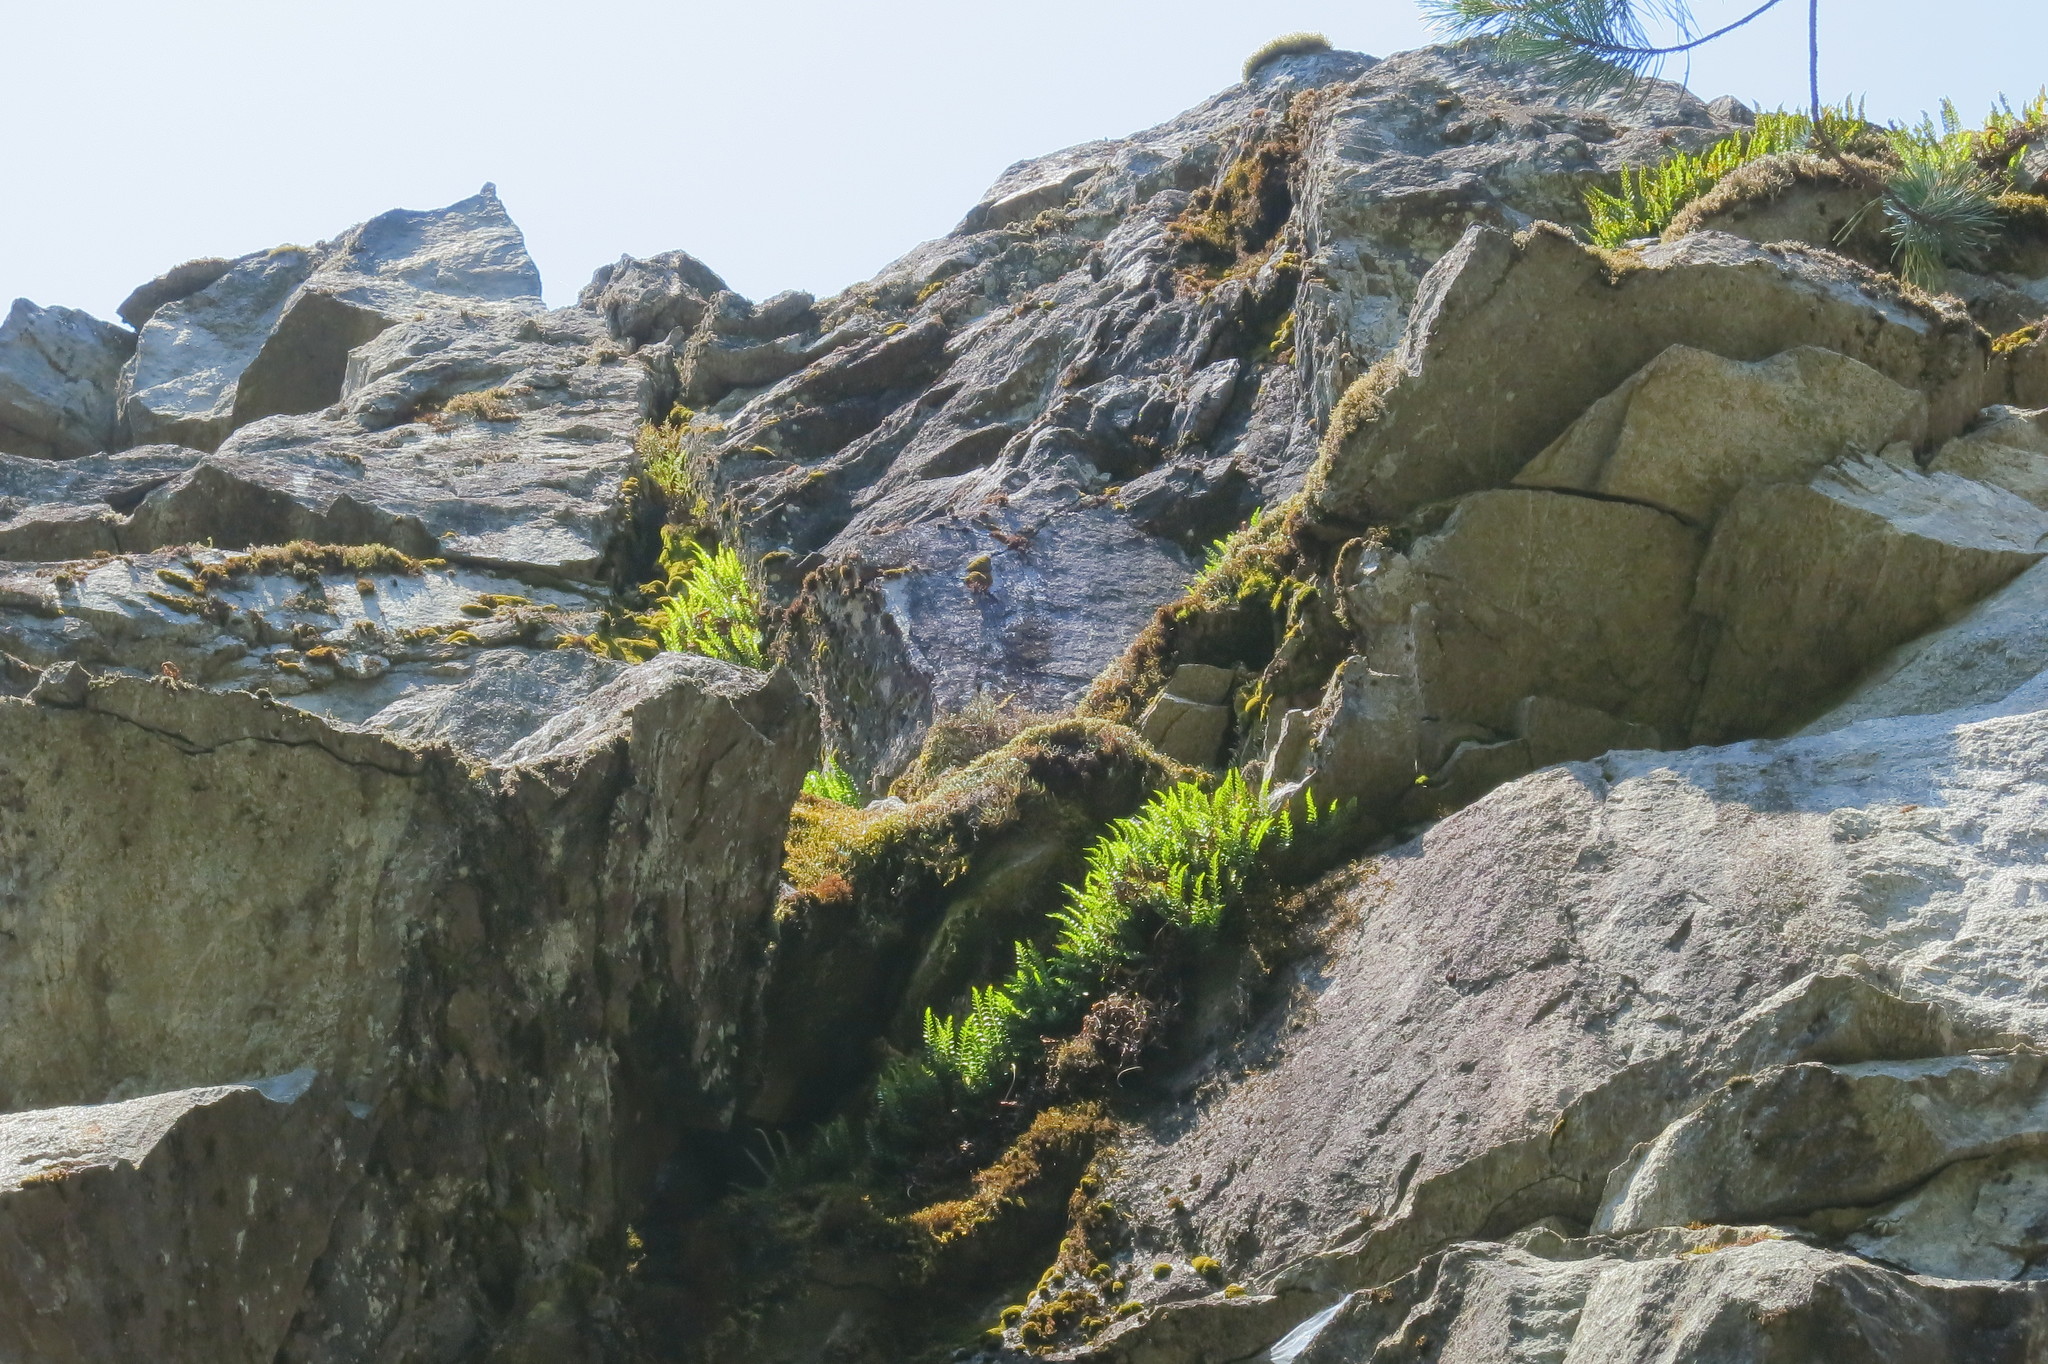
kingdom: Plantae
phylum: Tracheophyta
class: Polypodiopsida
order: Polypodiales
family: Polypodiaceae
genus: Polypodium
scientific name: Polypodium amorphum
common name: Pacific polypody
